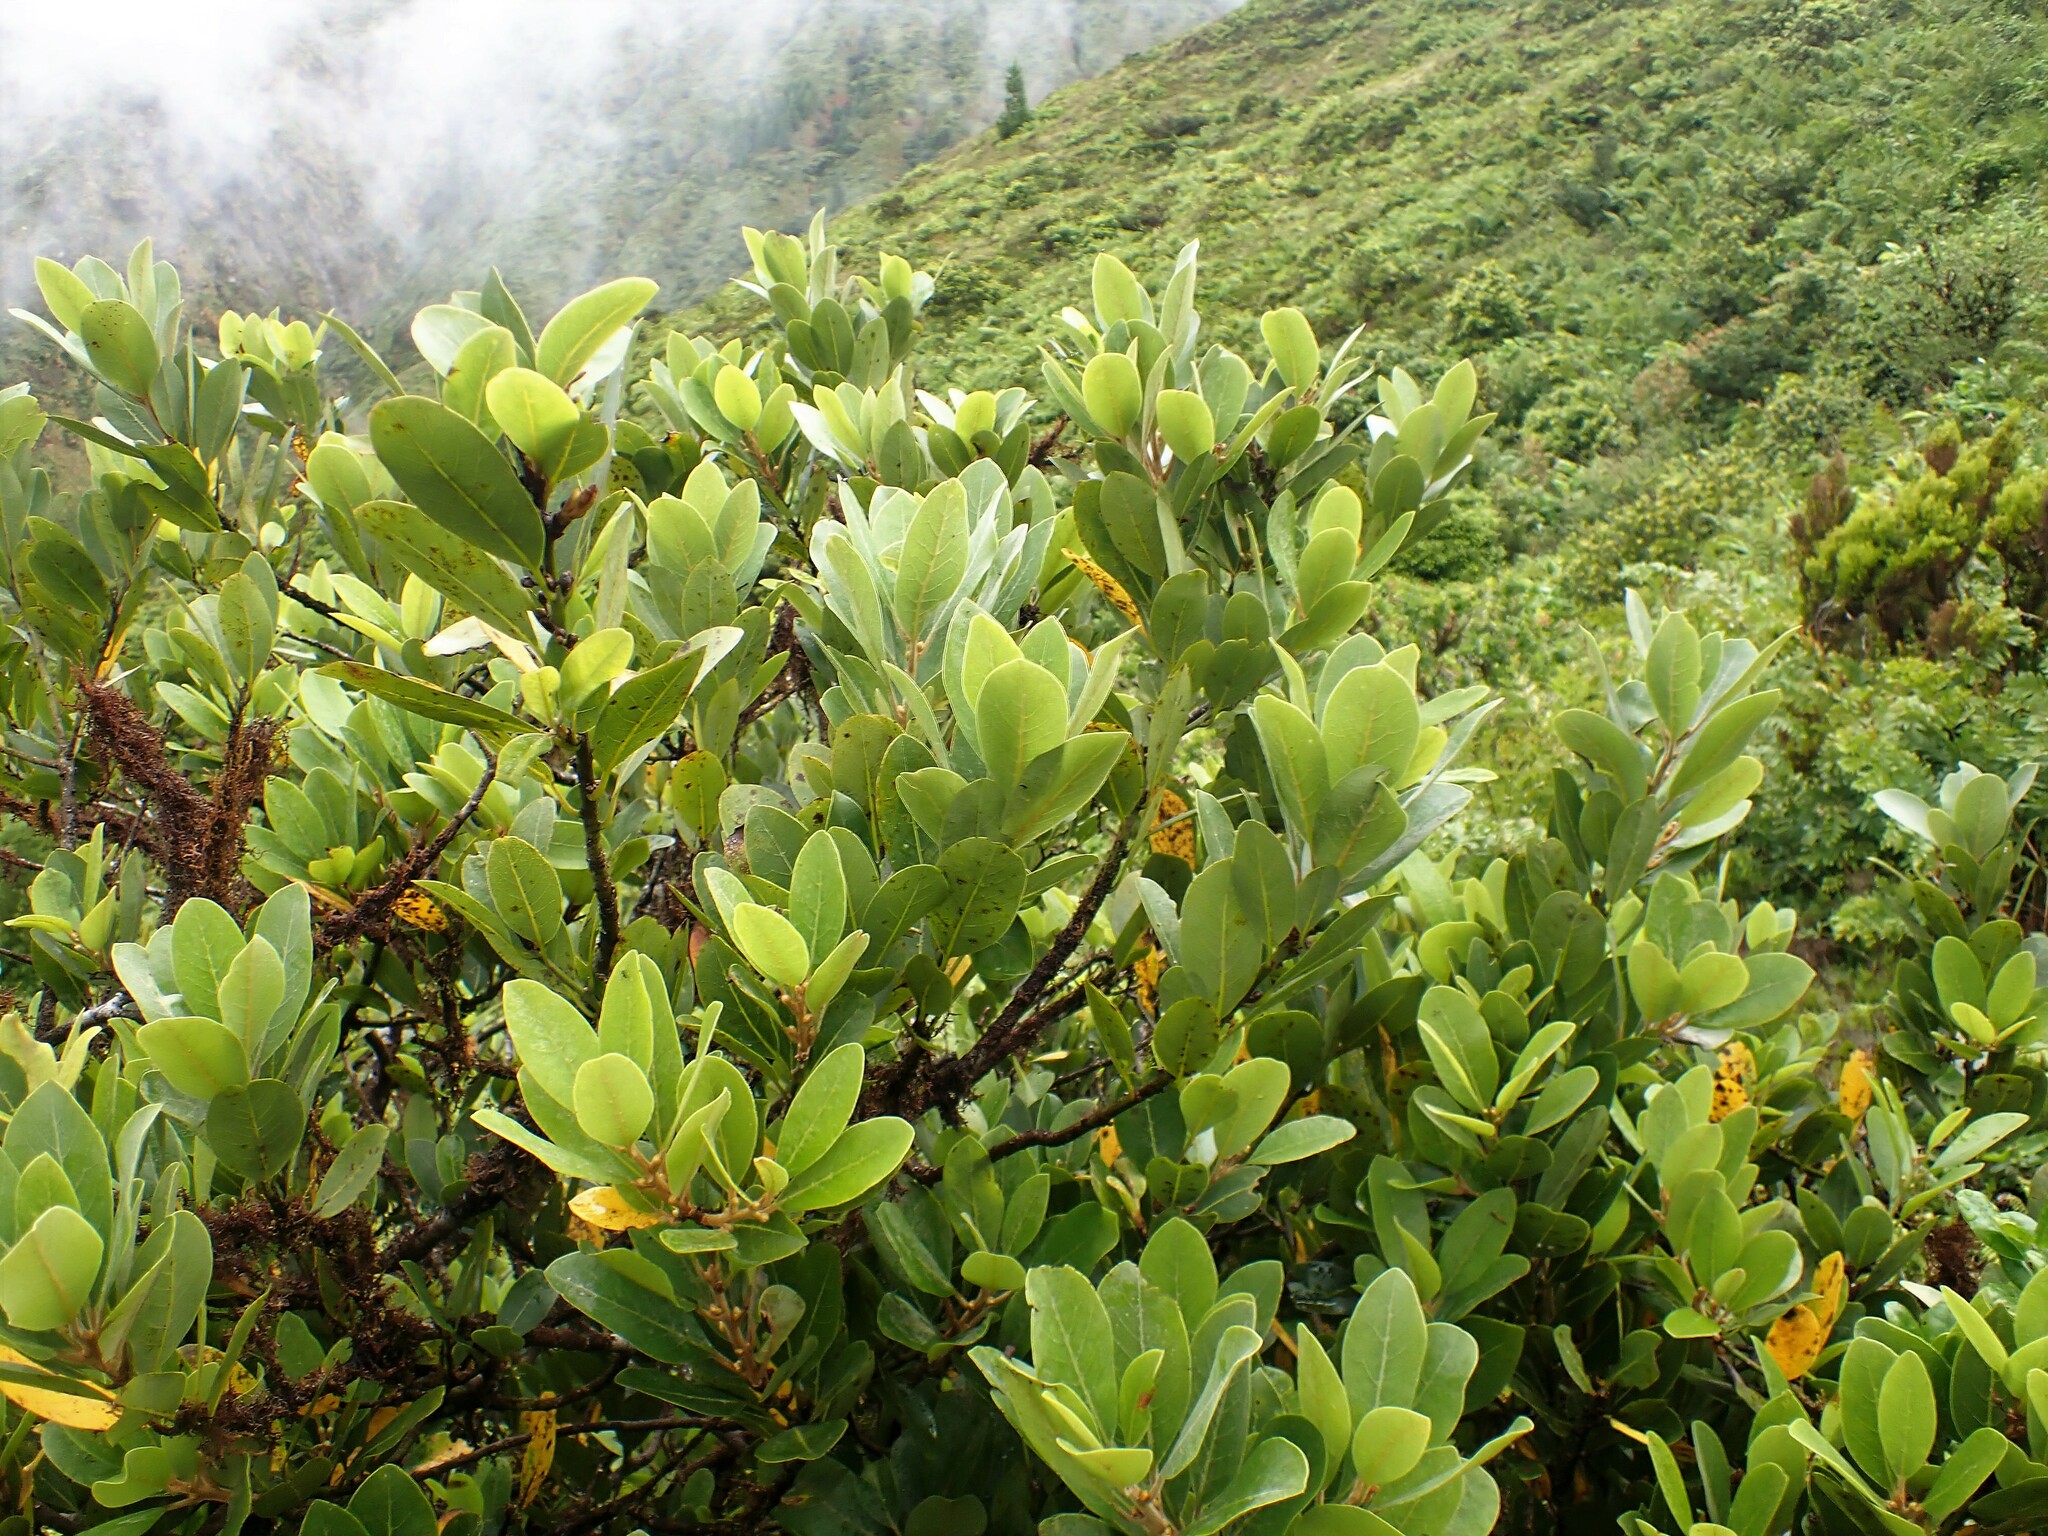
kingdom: Plantae
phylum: Tracheophyta
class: Magnoliopsida
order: Laurales
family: Lauraceae
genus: Laurus
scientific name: Laurus azorica
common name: Macaronesian laurel
